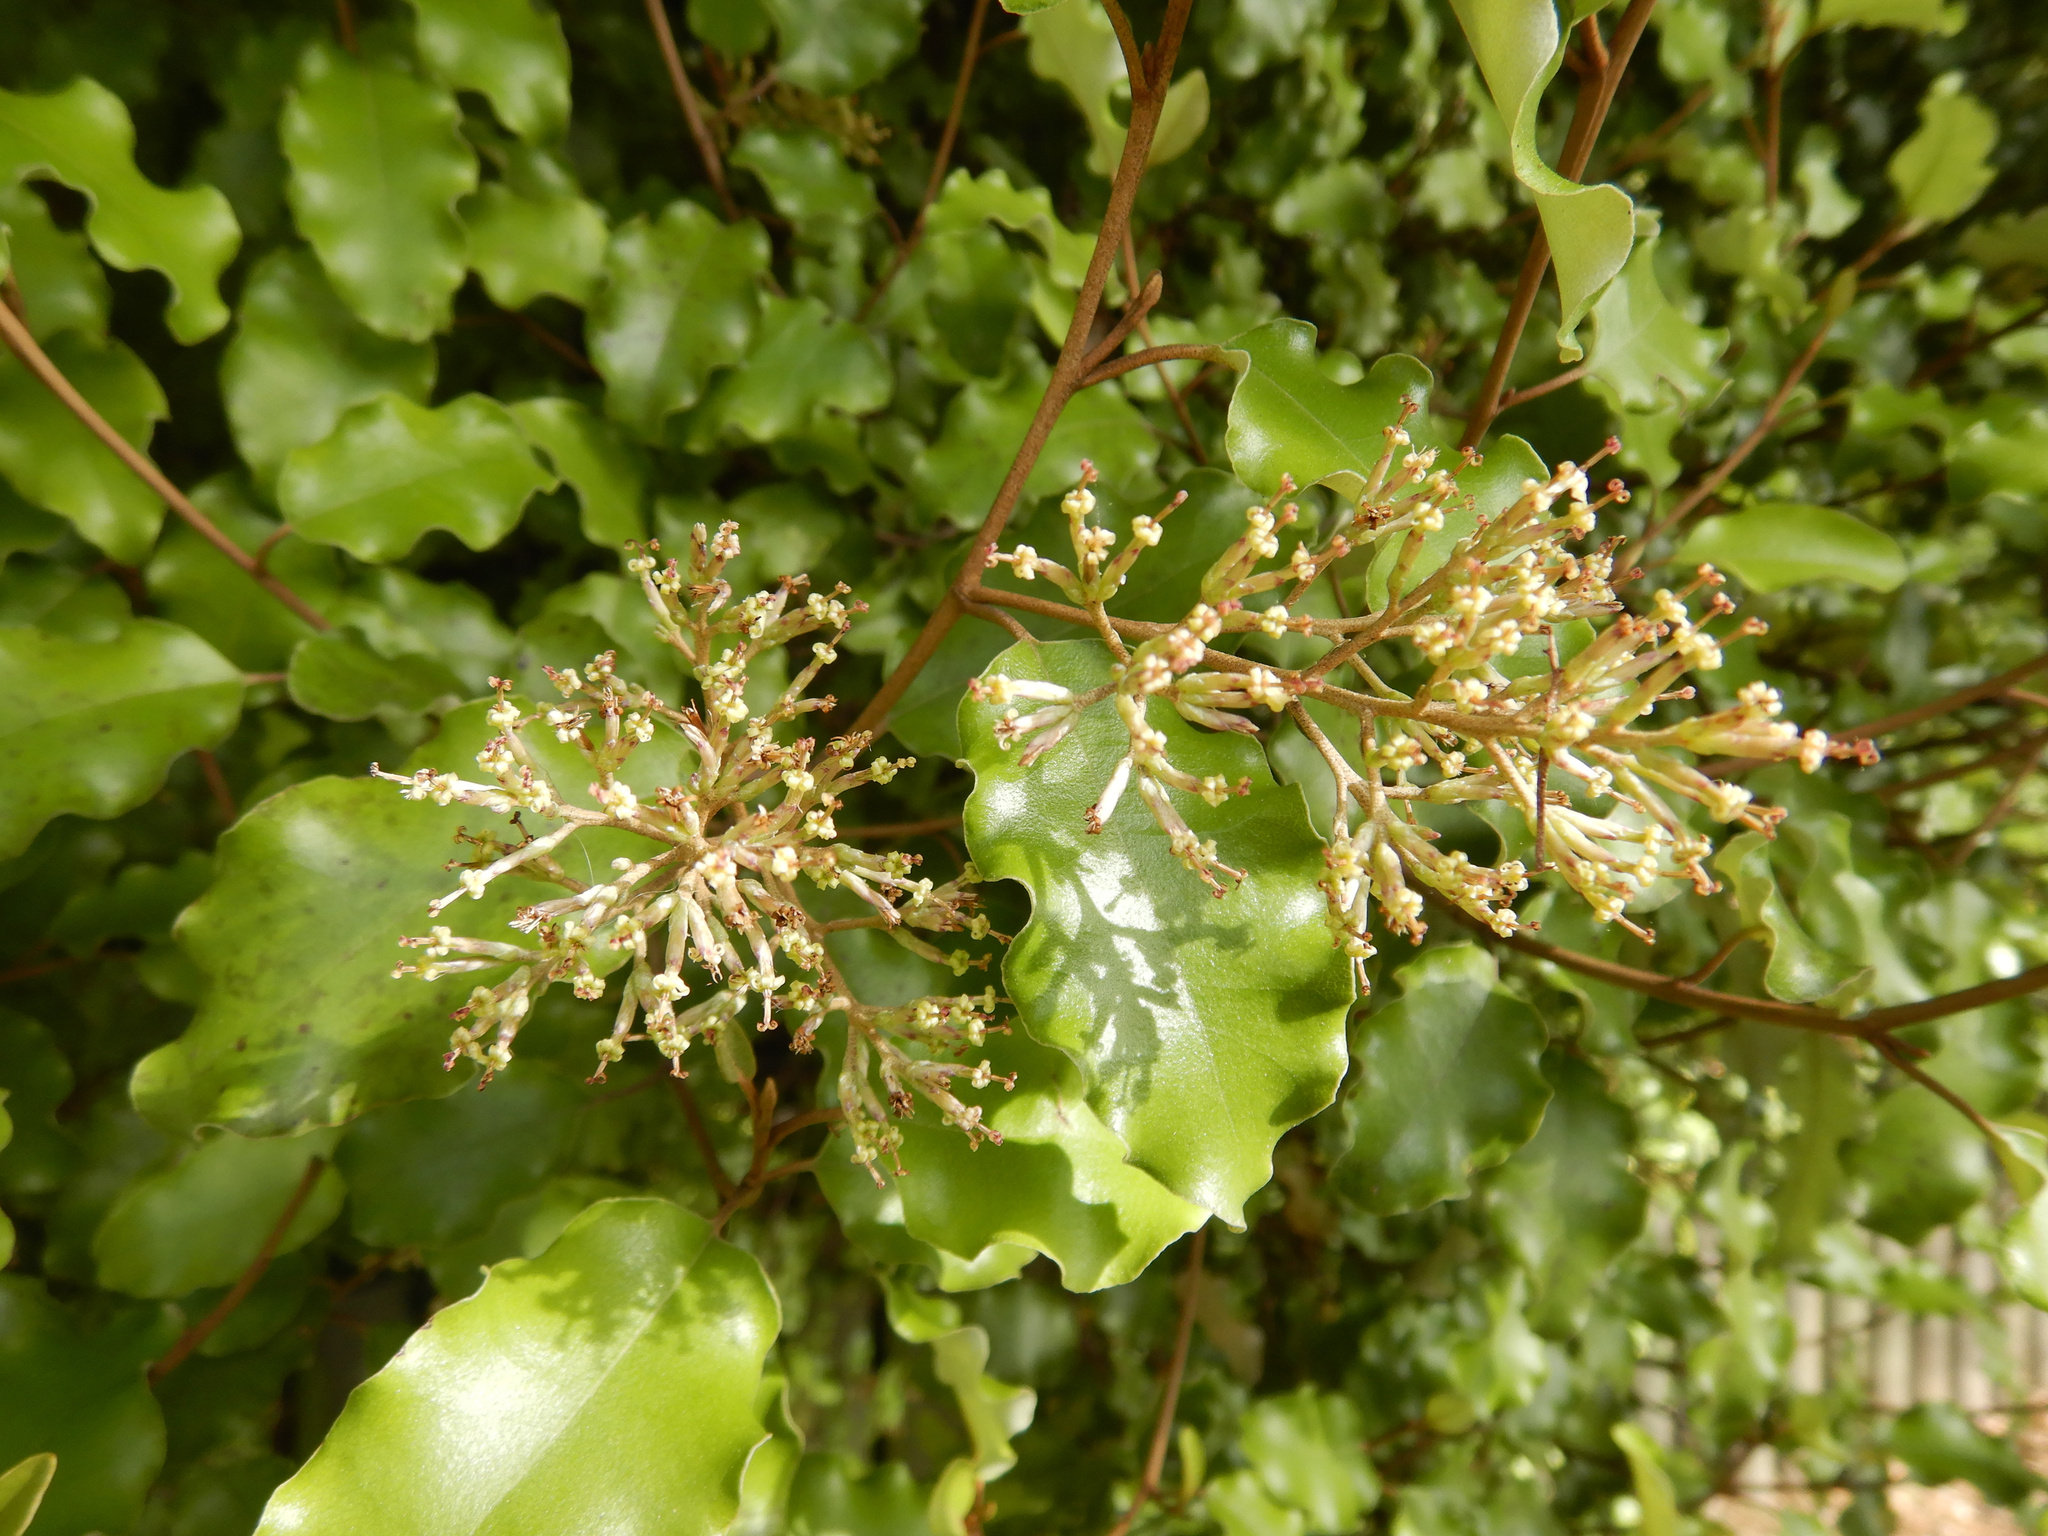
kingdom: Plantae
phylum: Tracheophyta
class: Magnoliopsida
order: Asterales
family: Asteraceae
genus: Olearia
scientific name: Olearia paniculata
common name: Akiraho
